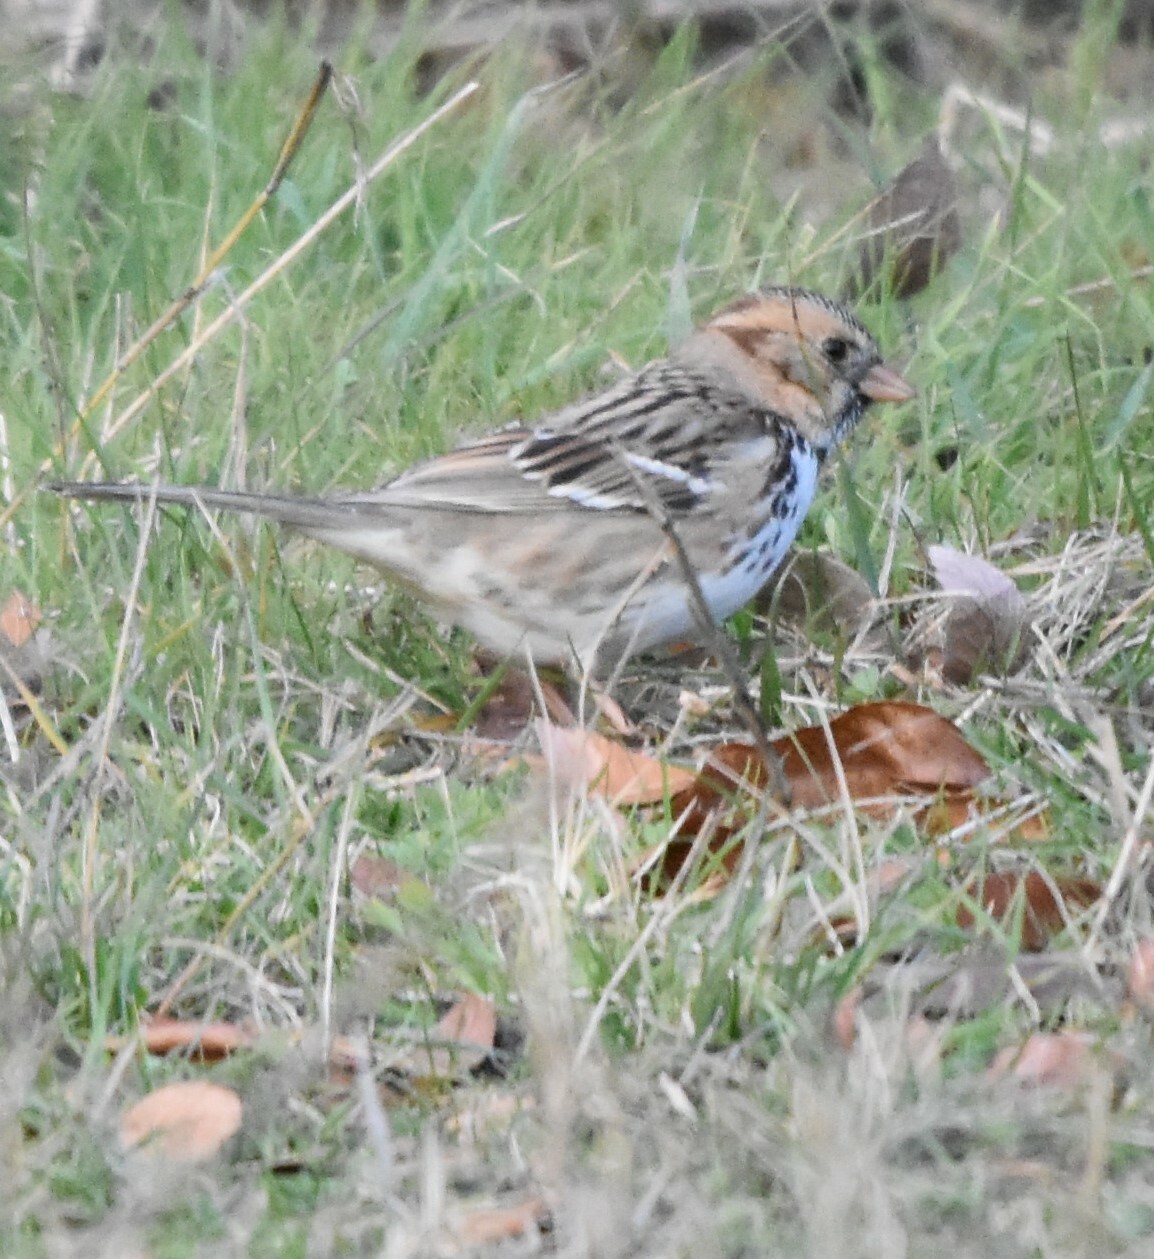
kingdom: Animalia
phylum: Chordata
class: Aves
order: Passeriformes
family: Passerellidae
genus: Zonotrichia
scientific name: Zonotrichia querula
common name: Harris's sparrow
